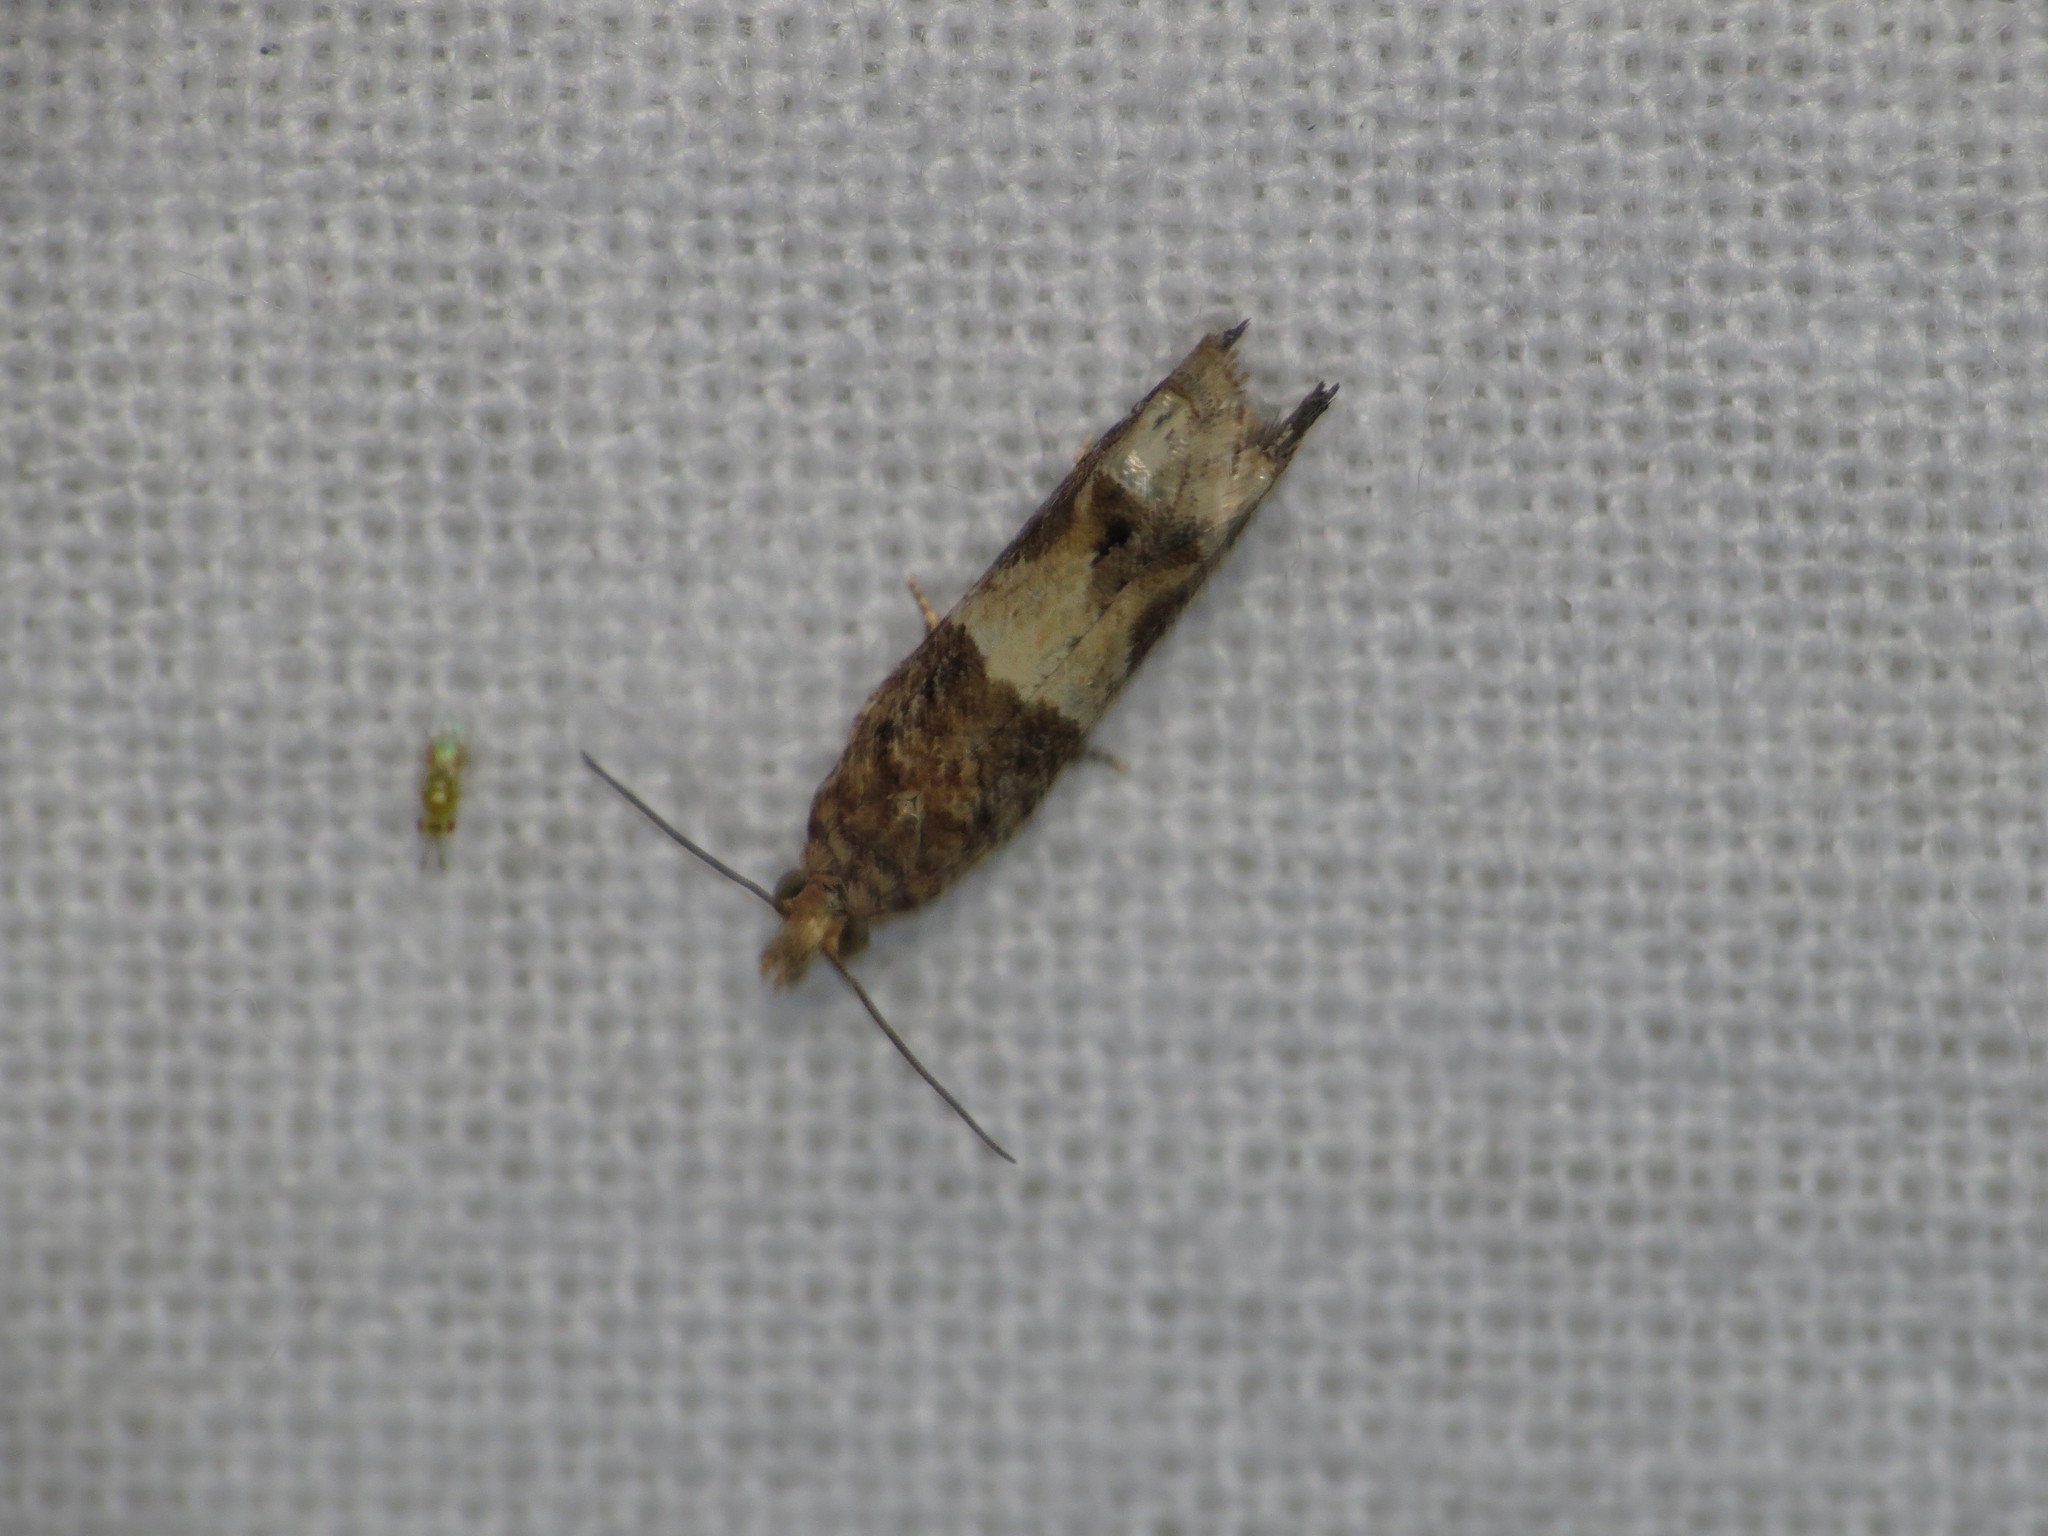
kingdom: Animalia
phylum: Arthropoda
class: Insecta
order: Lepidoptera
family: Tortricidae
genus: Crocidosema
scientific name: Crocidosema plebejana
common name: Southern bell
